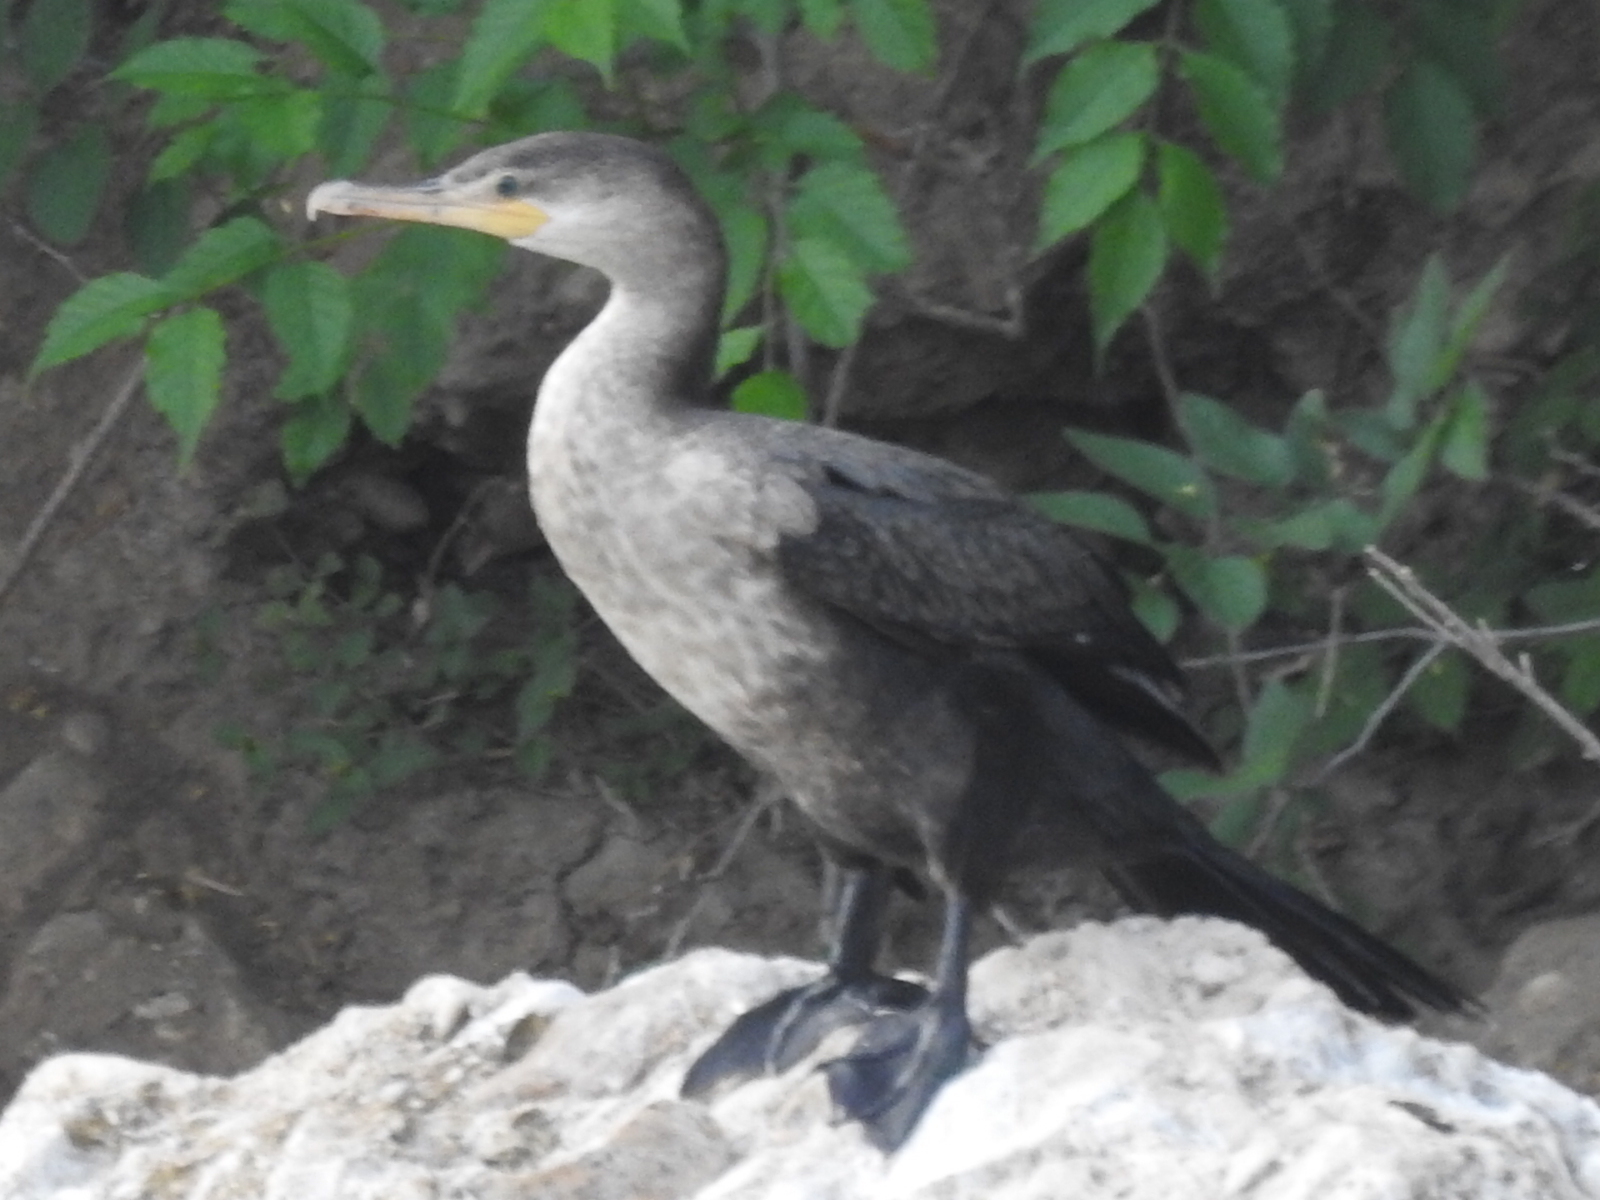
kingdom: Animalia
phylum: Chordata
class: Aves
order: Suliformes
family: Phalacrocoracidae
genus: Phalacrocorax
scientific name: Phalacrocorax brasilianus
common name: Neotropic cormorant
